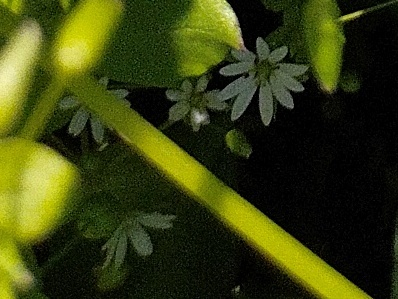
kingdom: Plantae
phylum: Tracheophyta
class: Magnoliopsida
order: Caryophyllales
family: Caryophyllaceae
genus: Stellaria
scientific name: Stellaria neglecta
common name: Greater chickweed
